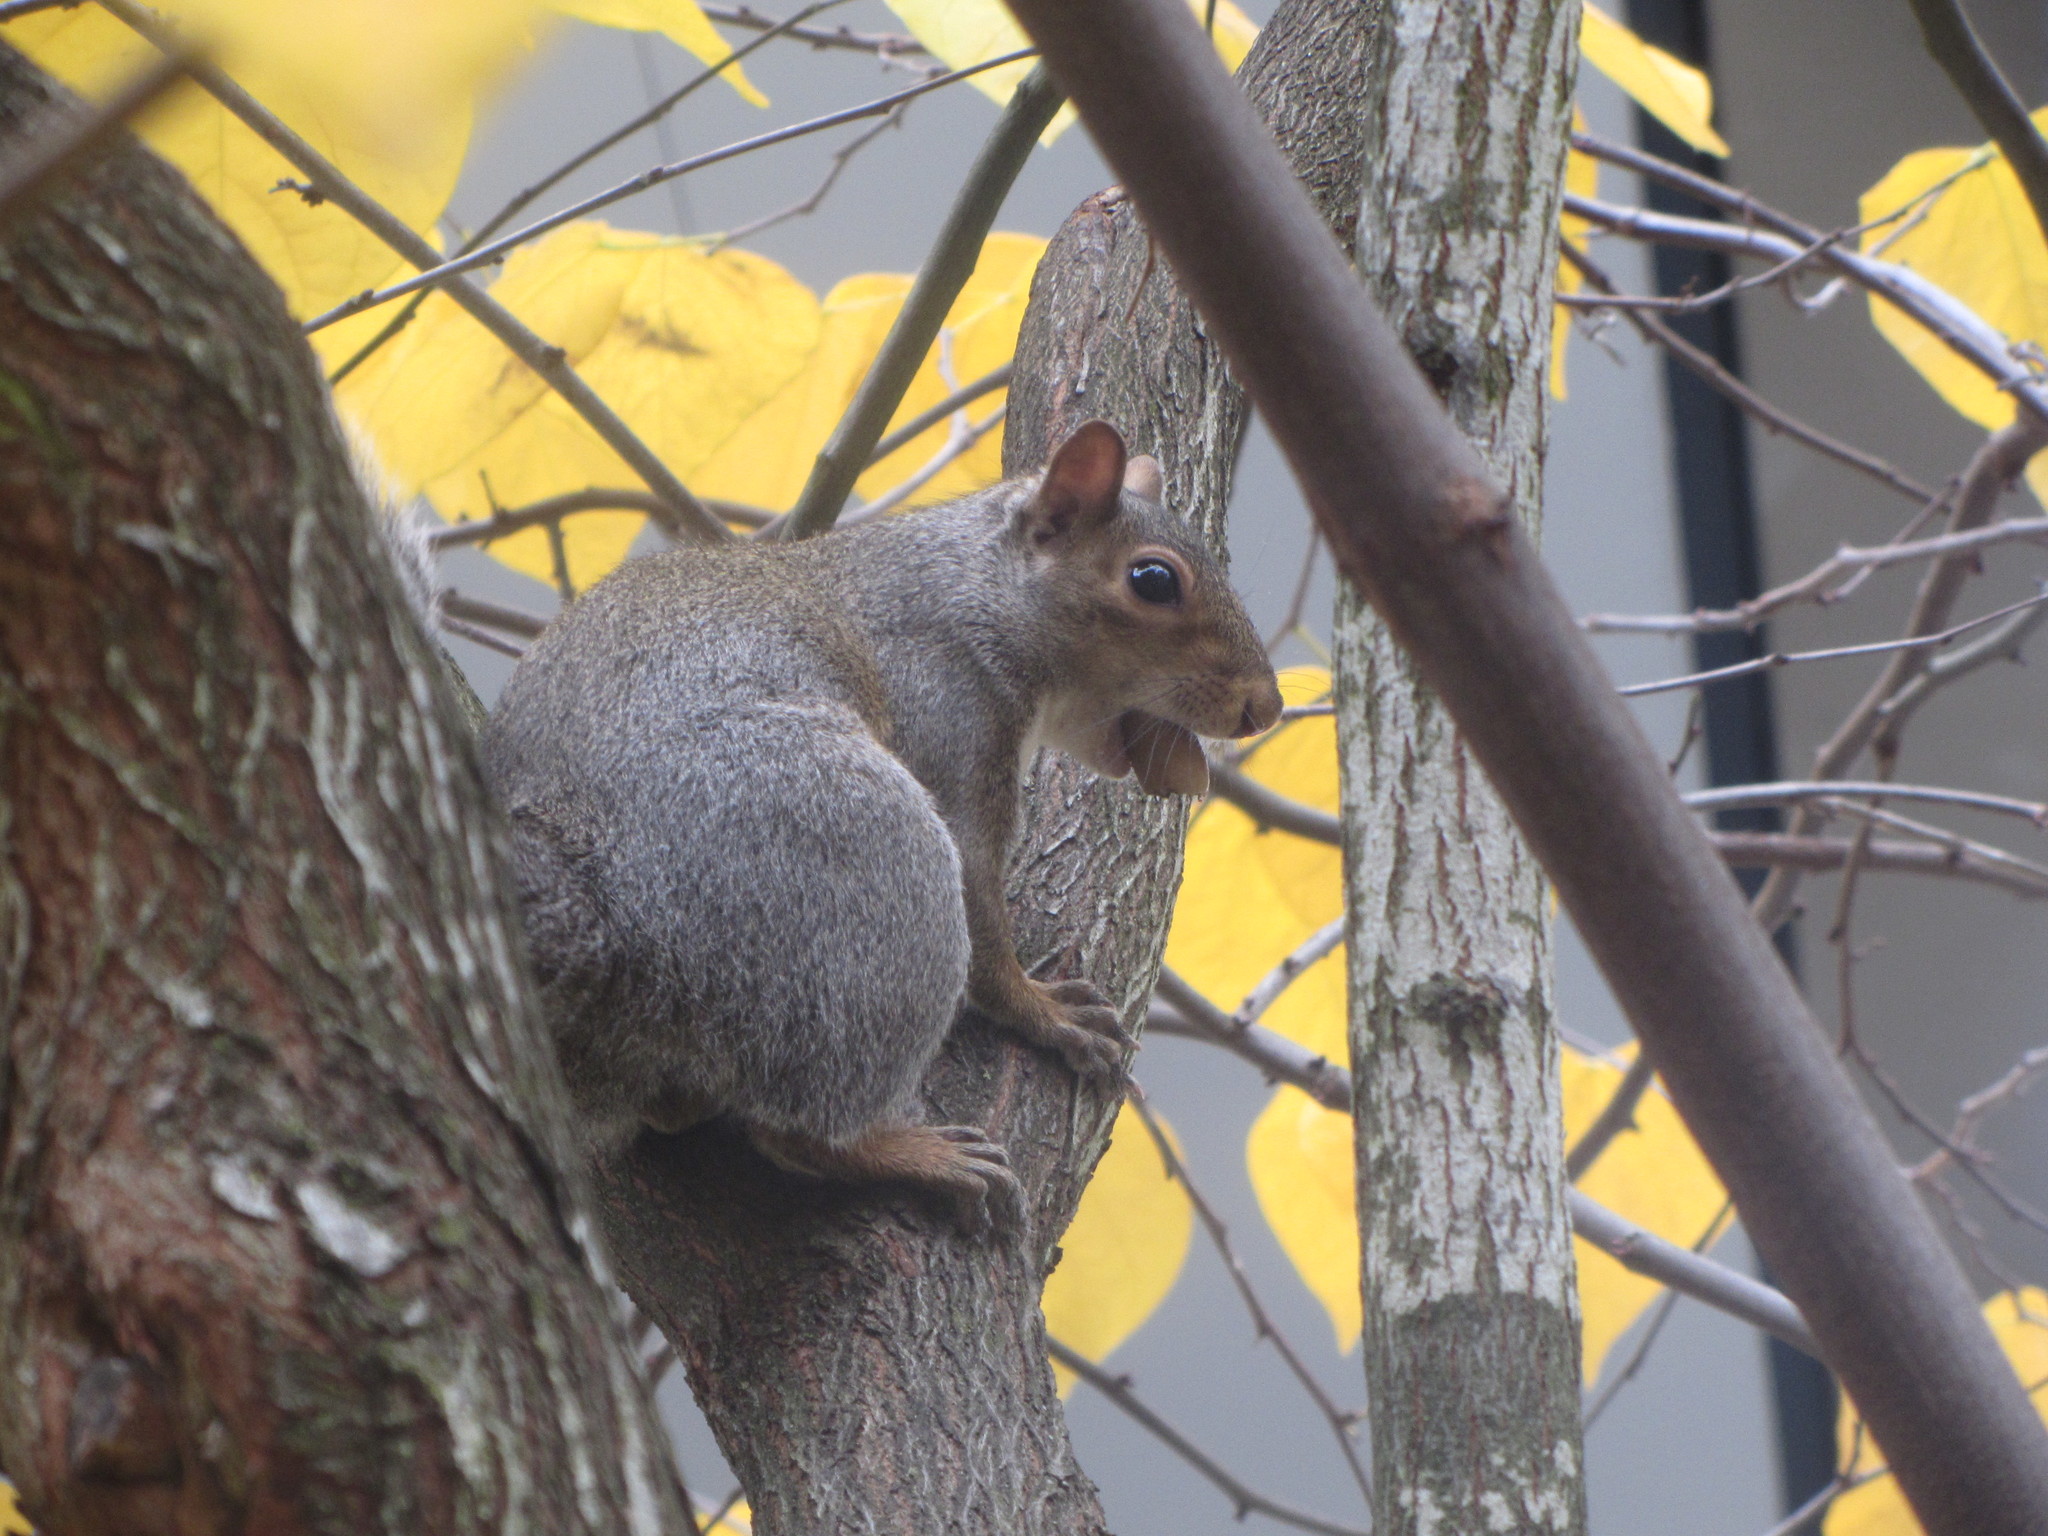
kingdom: Animalia
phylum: Chordata
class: Mammalia
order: Rodentia
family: Sciuridae
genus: Sciurus
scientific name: Sciurus carolinensis
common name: Eastern gray squirrel
